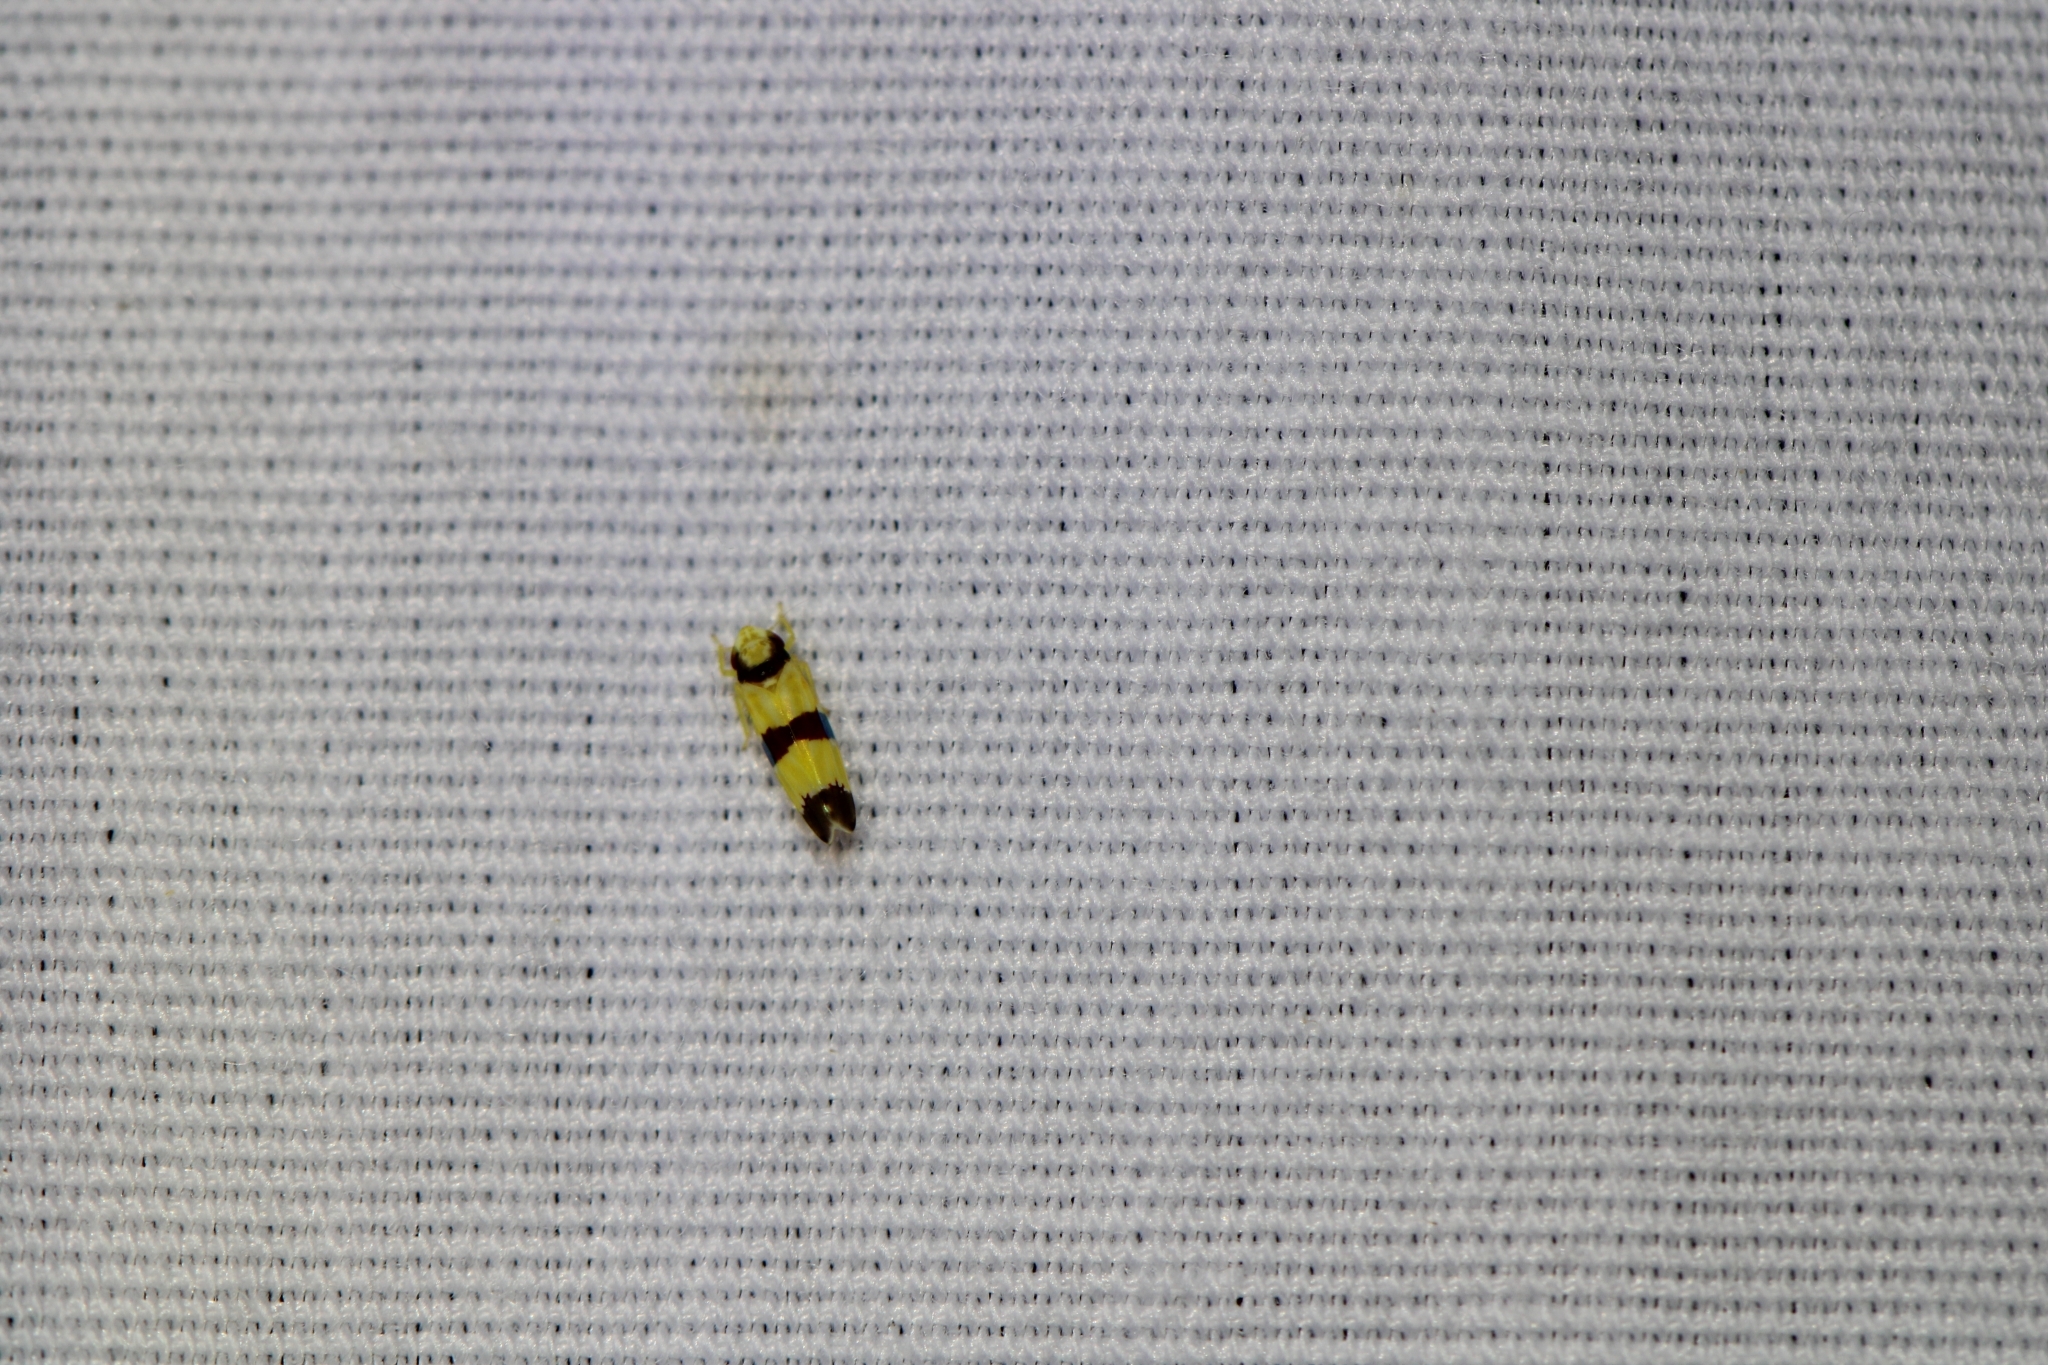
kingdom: Animalia
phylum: Arthropoda
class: Insecta
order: Hemiptera
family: Cicadellidae
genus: Erythroneura
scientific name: Erythroneura calycula
